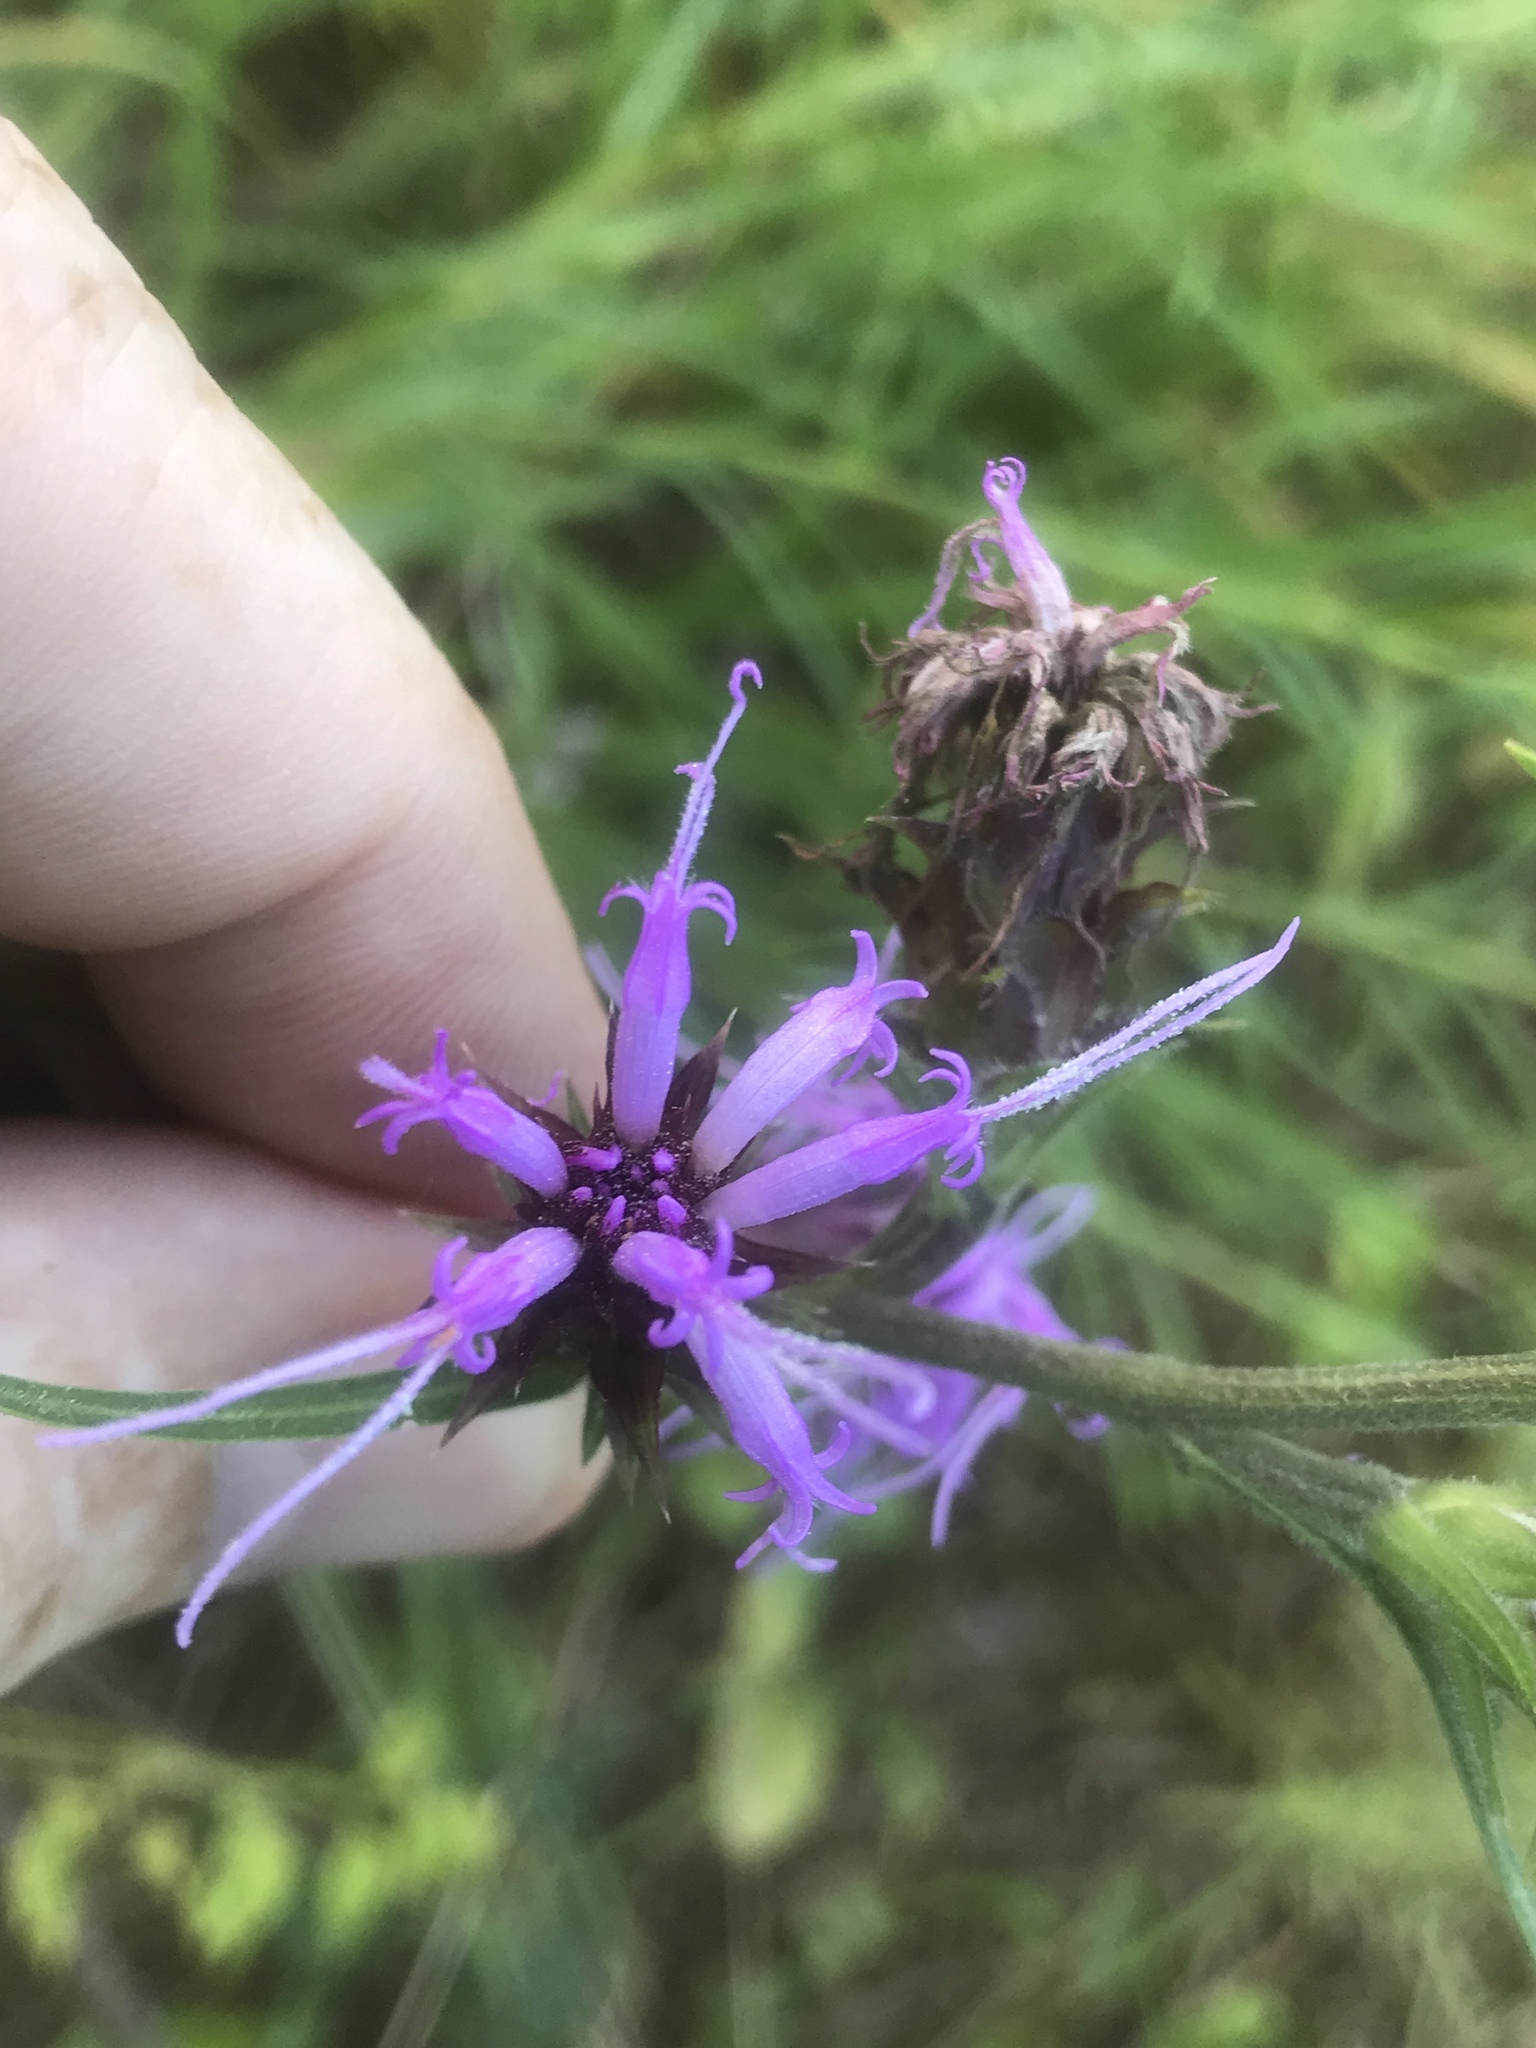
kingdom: Plantae
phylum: Tracheophyta
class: Magnoliopsida
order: Asterales
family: Asteraceae
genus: Liatris
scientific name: Liatris squarrosa
